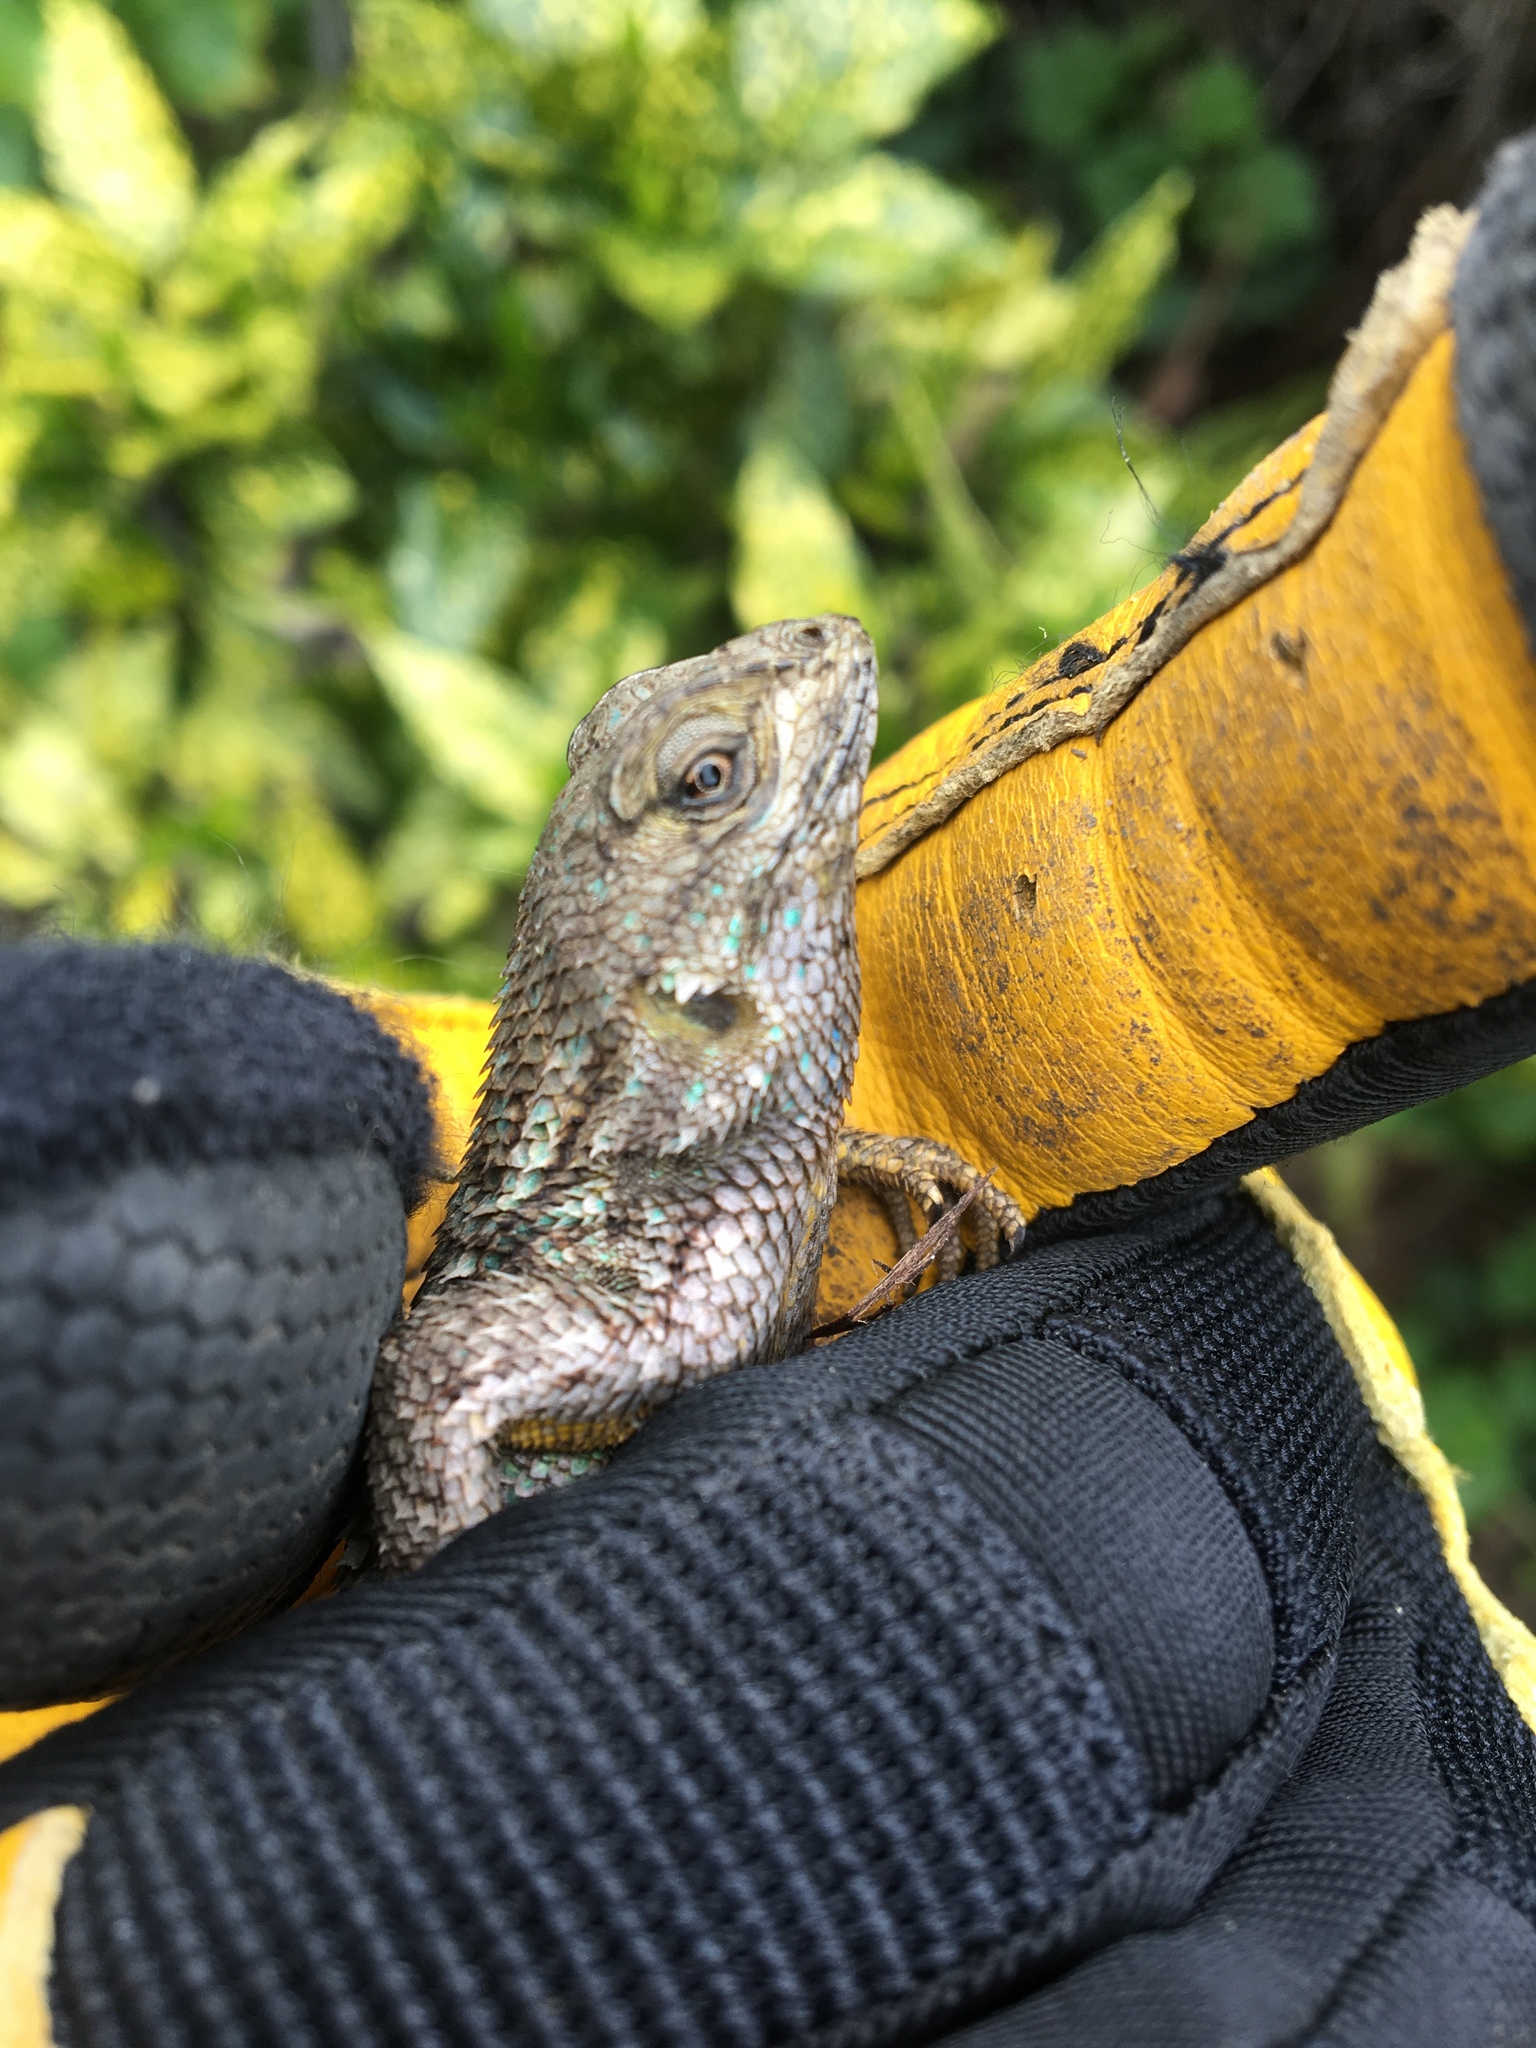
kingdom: Animalia
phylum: Chordata
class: Squamata
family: Phrynosomatidae
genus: Sceloporus
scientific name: Sceloporus occidentalis
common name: Western fence lizard
